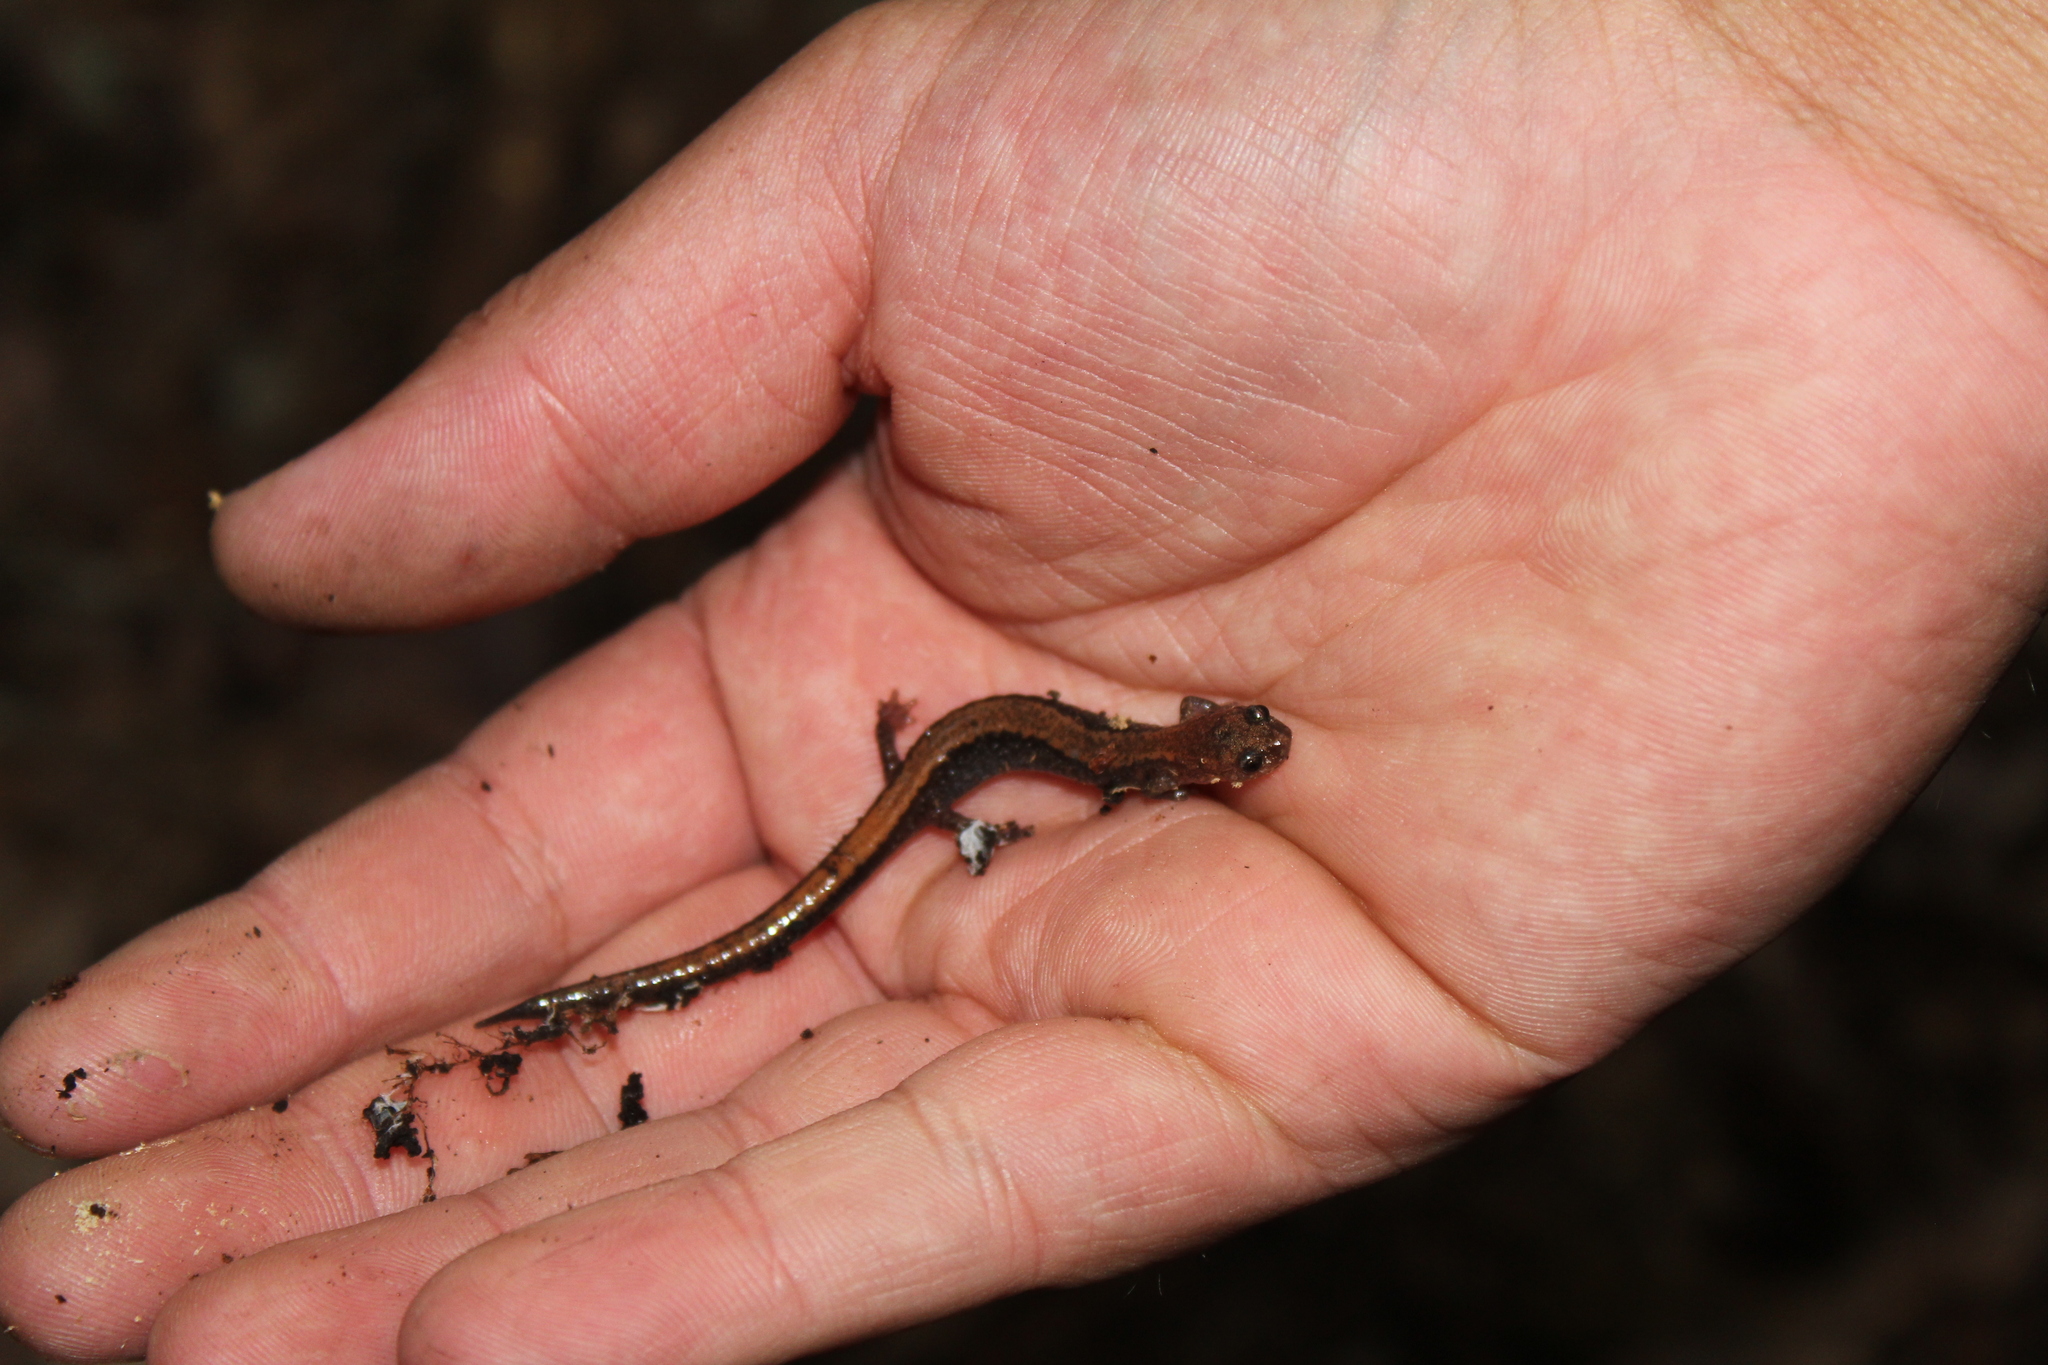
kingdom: Animalia
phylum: Chordata
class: Amphibia
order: Caudata
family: Plethodontidae
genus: Plethodon
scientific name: Plethodon cinereus
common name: Redback salamander
